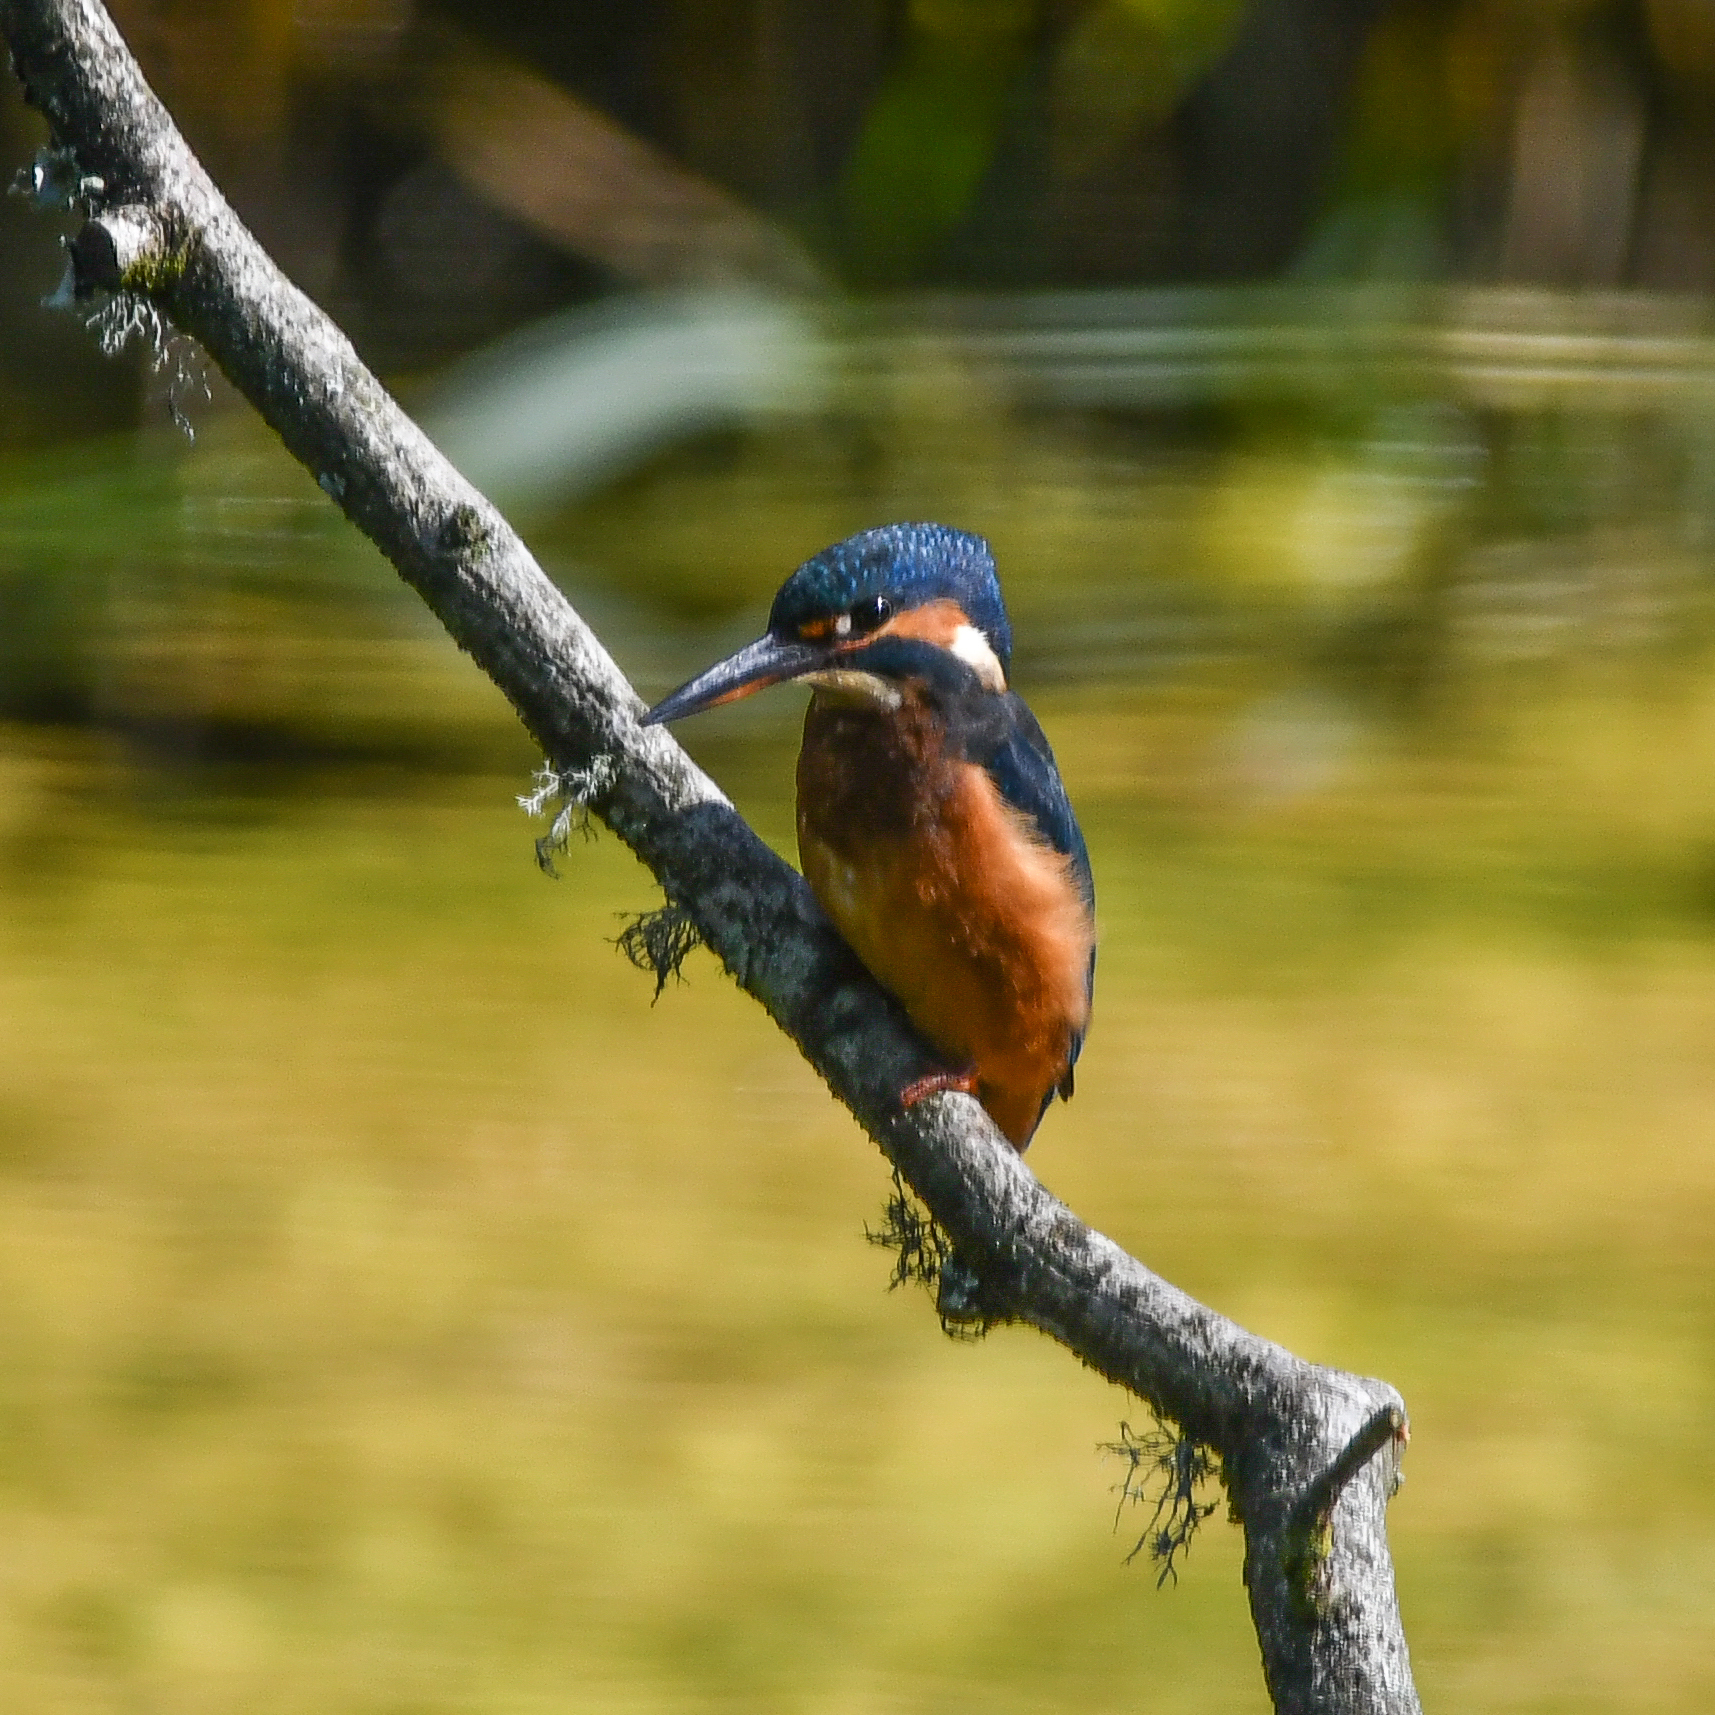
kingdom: Animalia
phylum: Chordata
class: Aves
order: Coraciiformes
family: Alcedinidae
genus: Alcedo
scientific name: Alcedo atthis
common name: Common kingfisher
